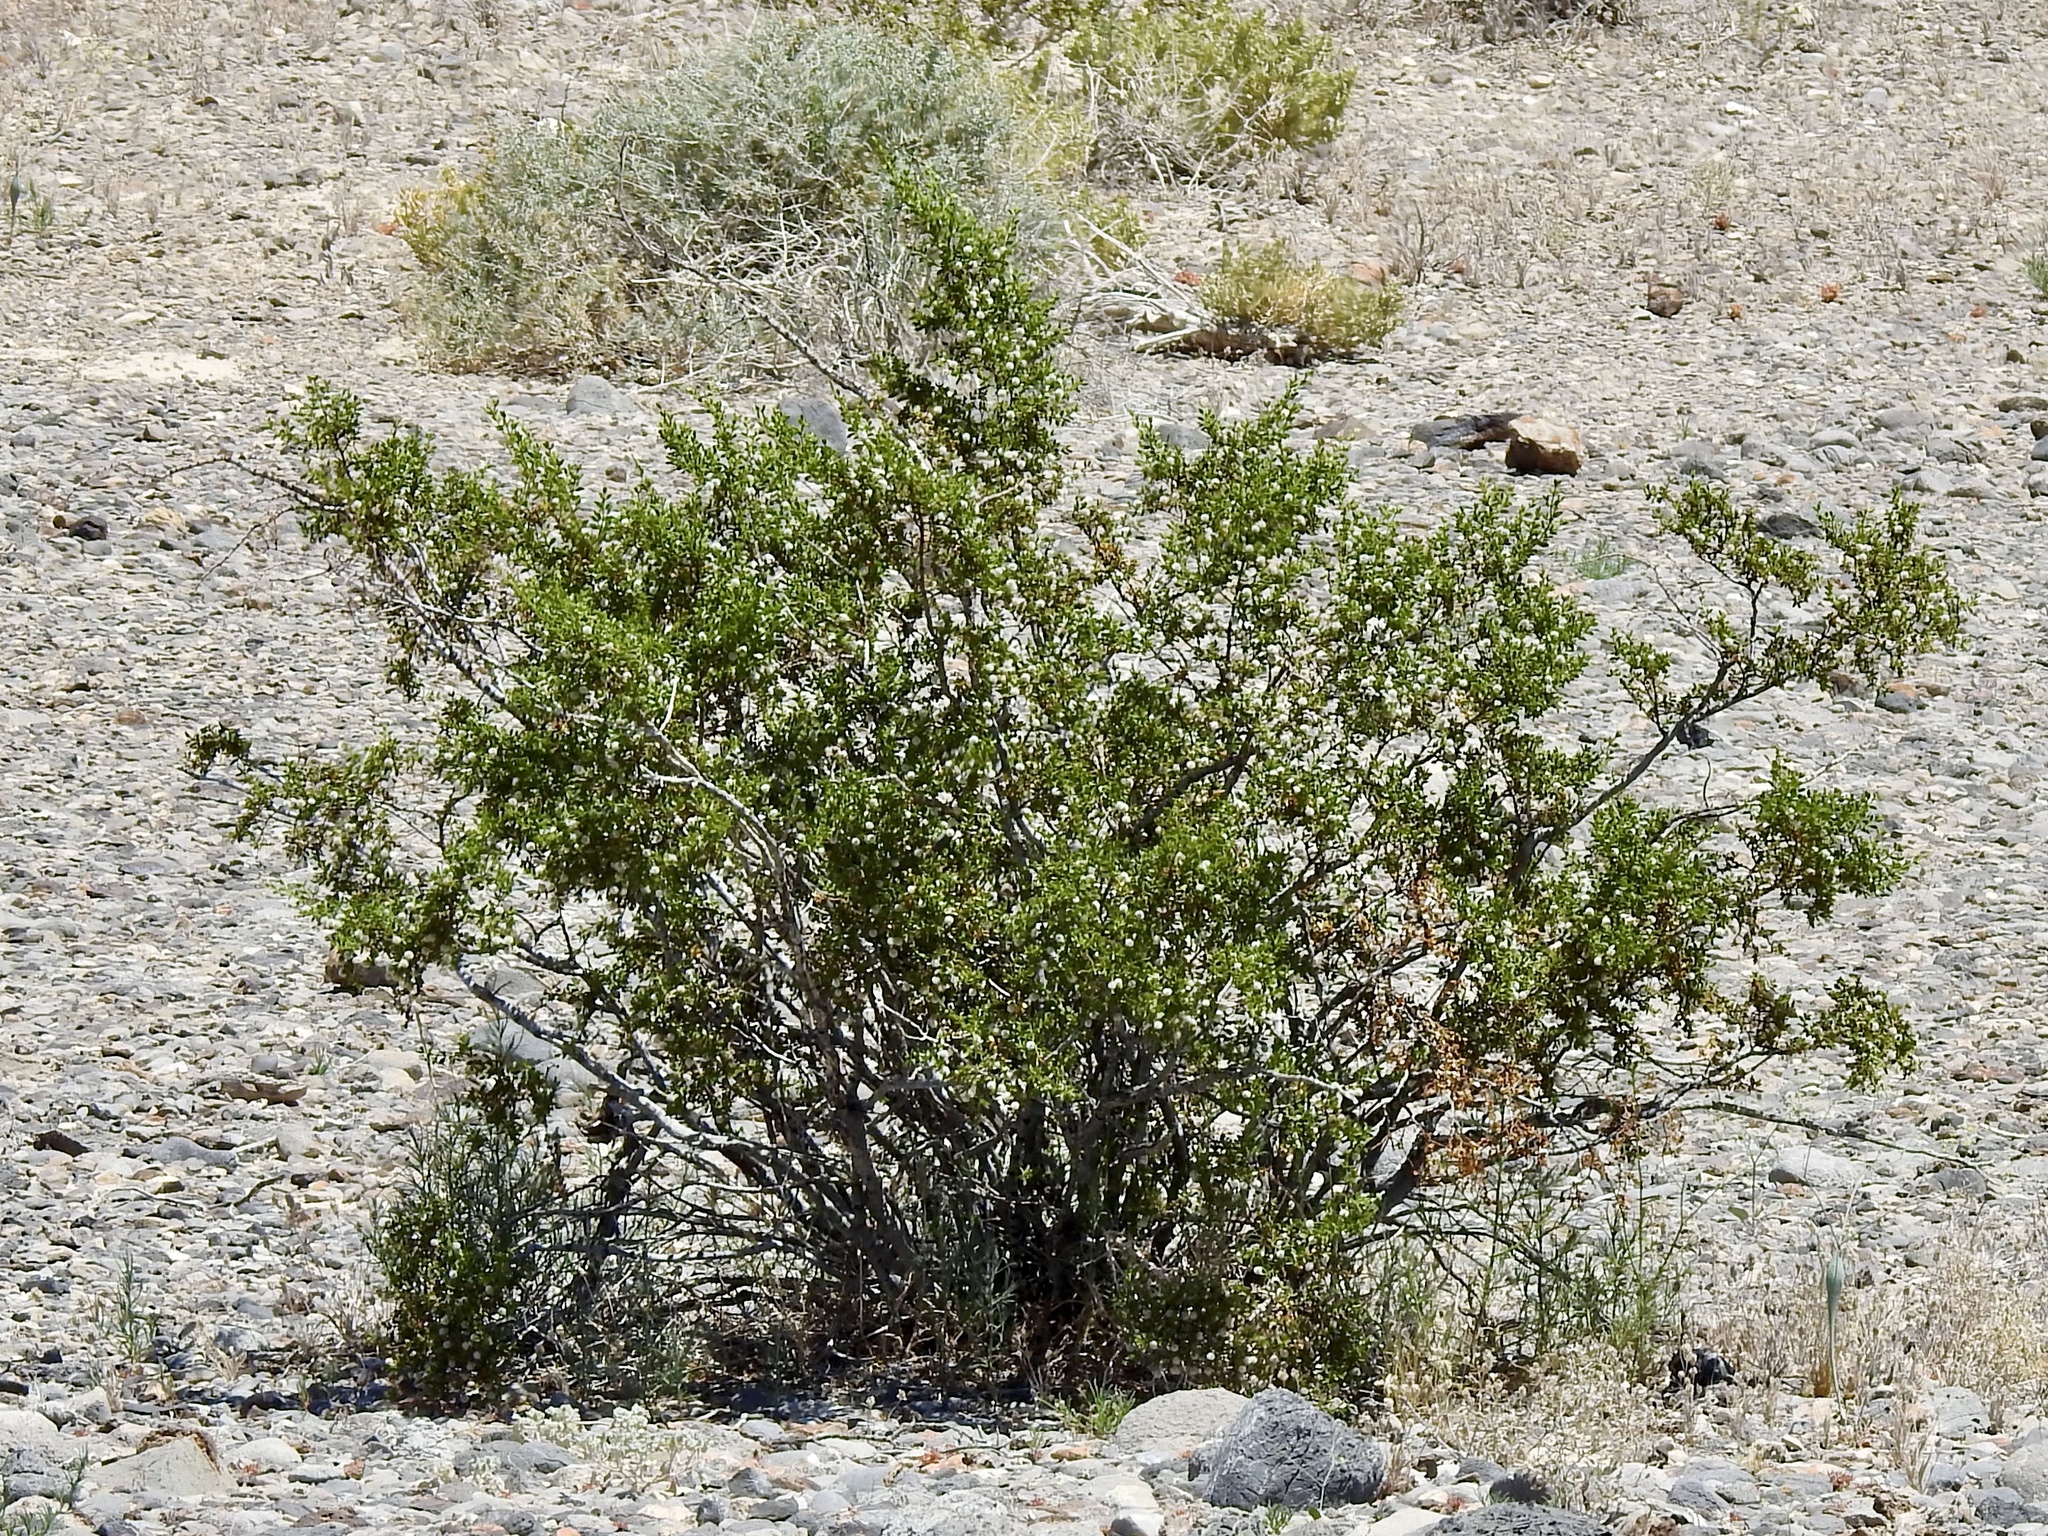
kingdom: Plantae
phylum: Tracheophyta
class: Magnoliopsida
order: Zygophyllales
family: Zygophyllaceae
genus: Larrea
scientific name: Larrea tridentata
